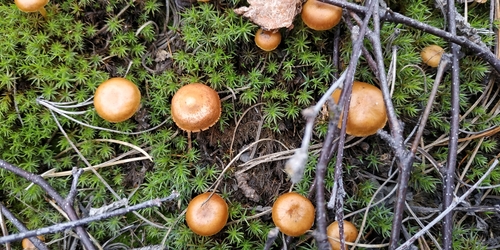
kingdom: Fungi
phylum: Basidiomycota
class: Agaricomycetes
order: Agaricales
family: Hymenogastraceae
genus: Galerina
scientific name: Galerina
